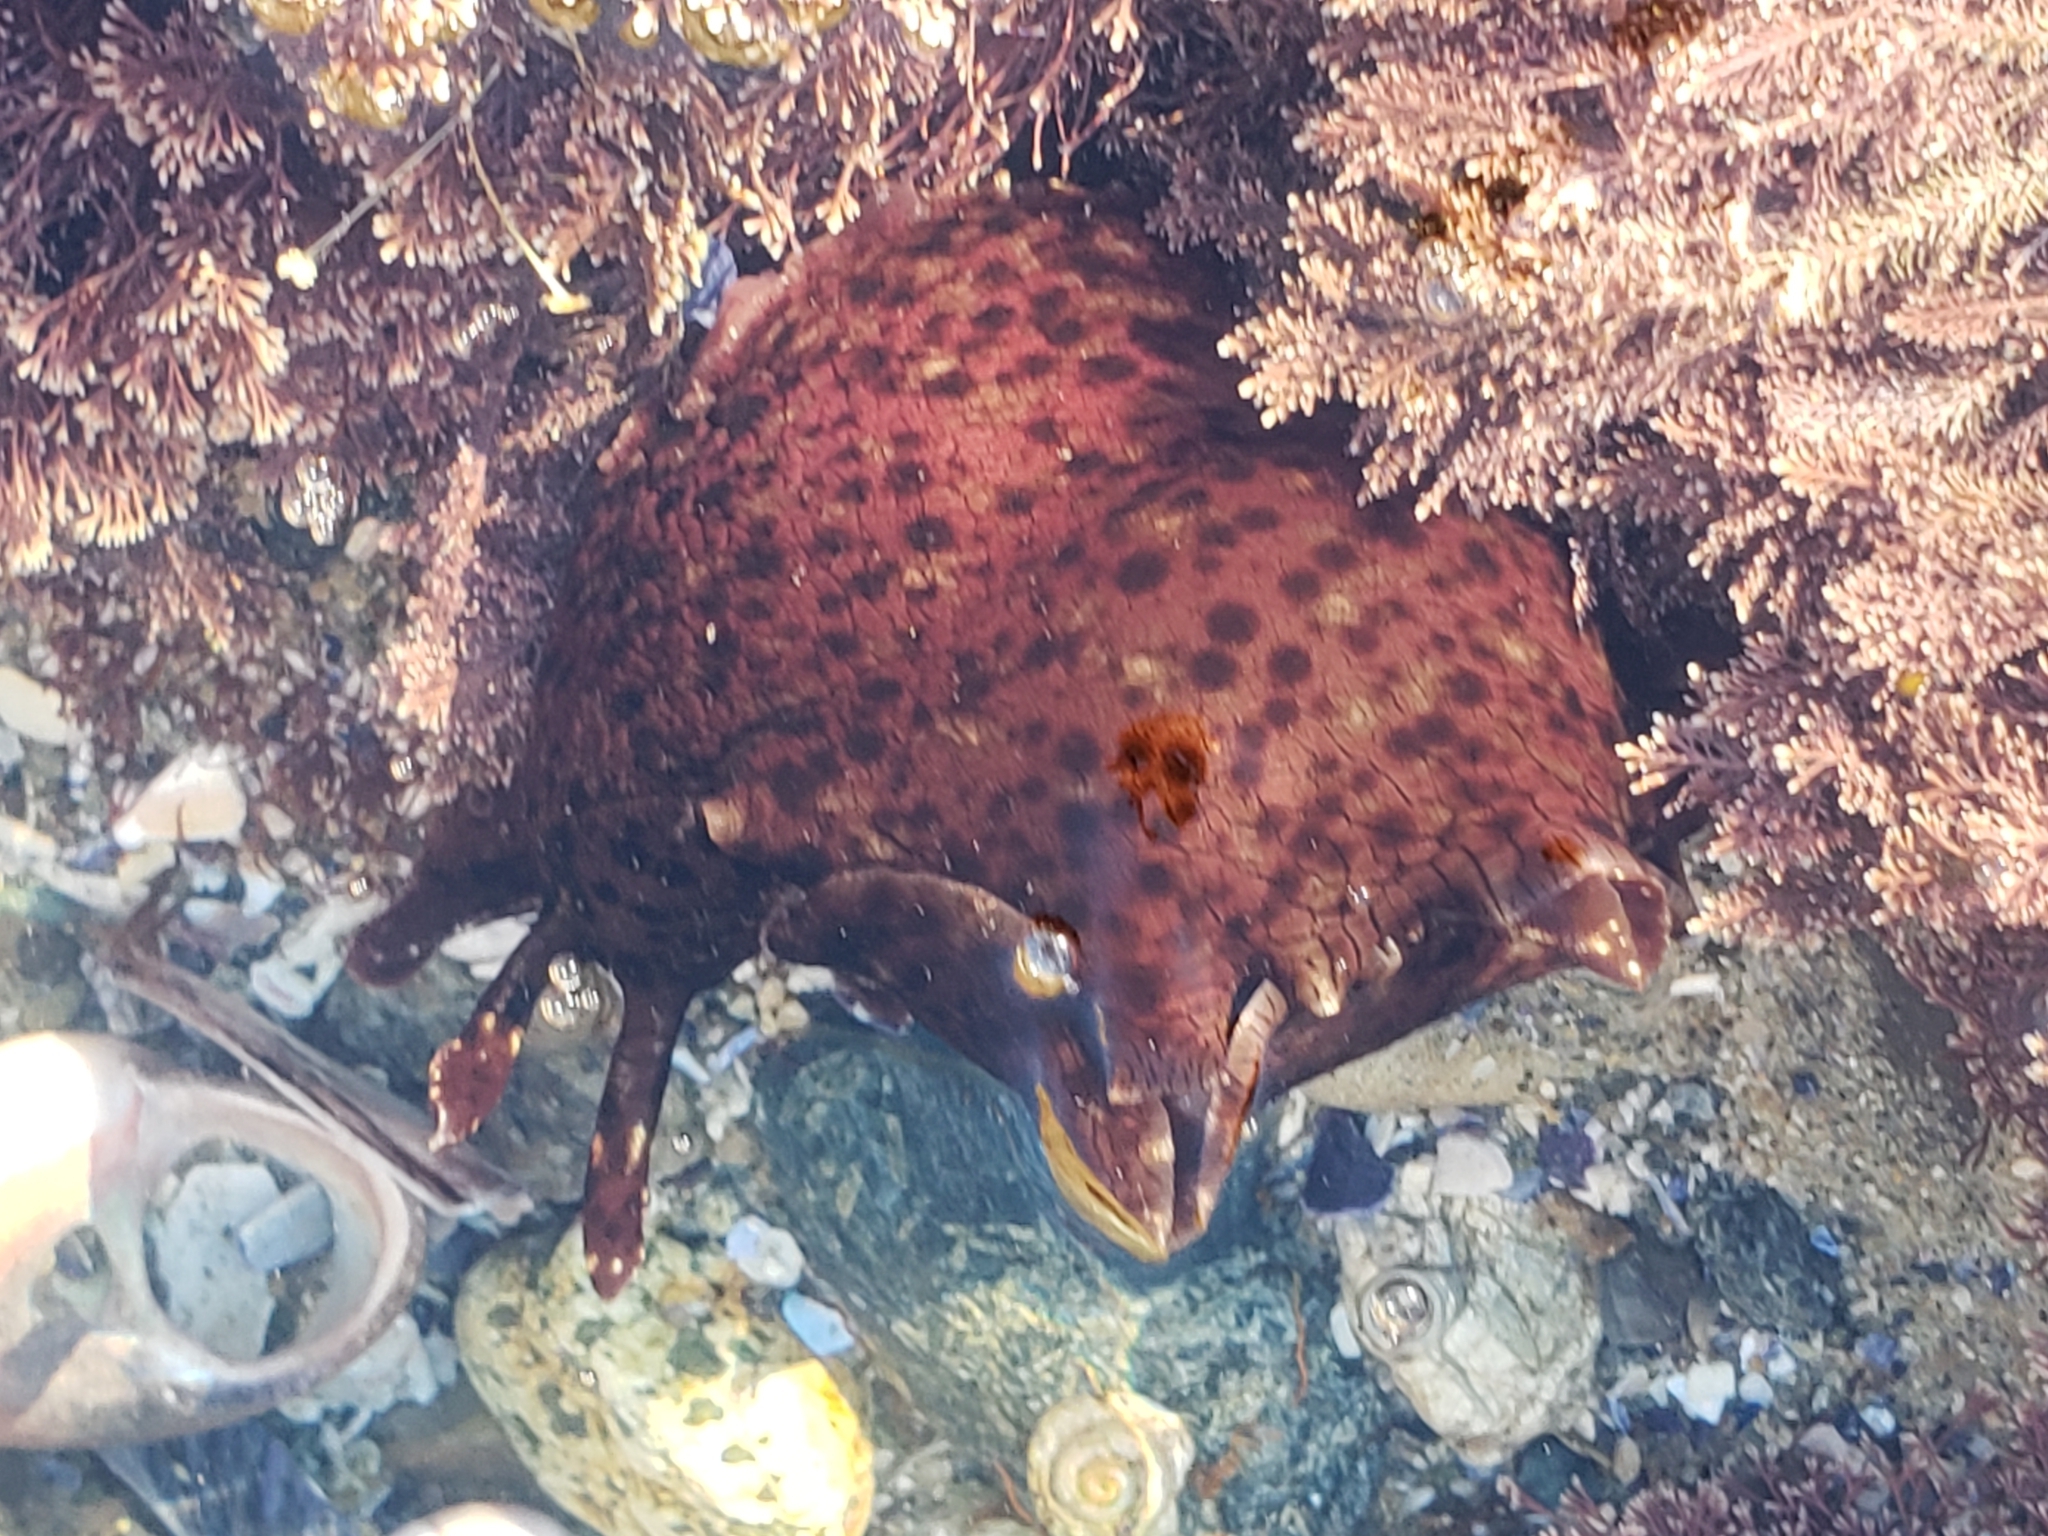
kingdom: Animalia
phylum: Mollusca
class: Gastropoda
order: Aplysiida
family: Aplysiidae
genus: Aplysia
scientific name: Aplysia californica
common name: California seahare
